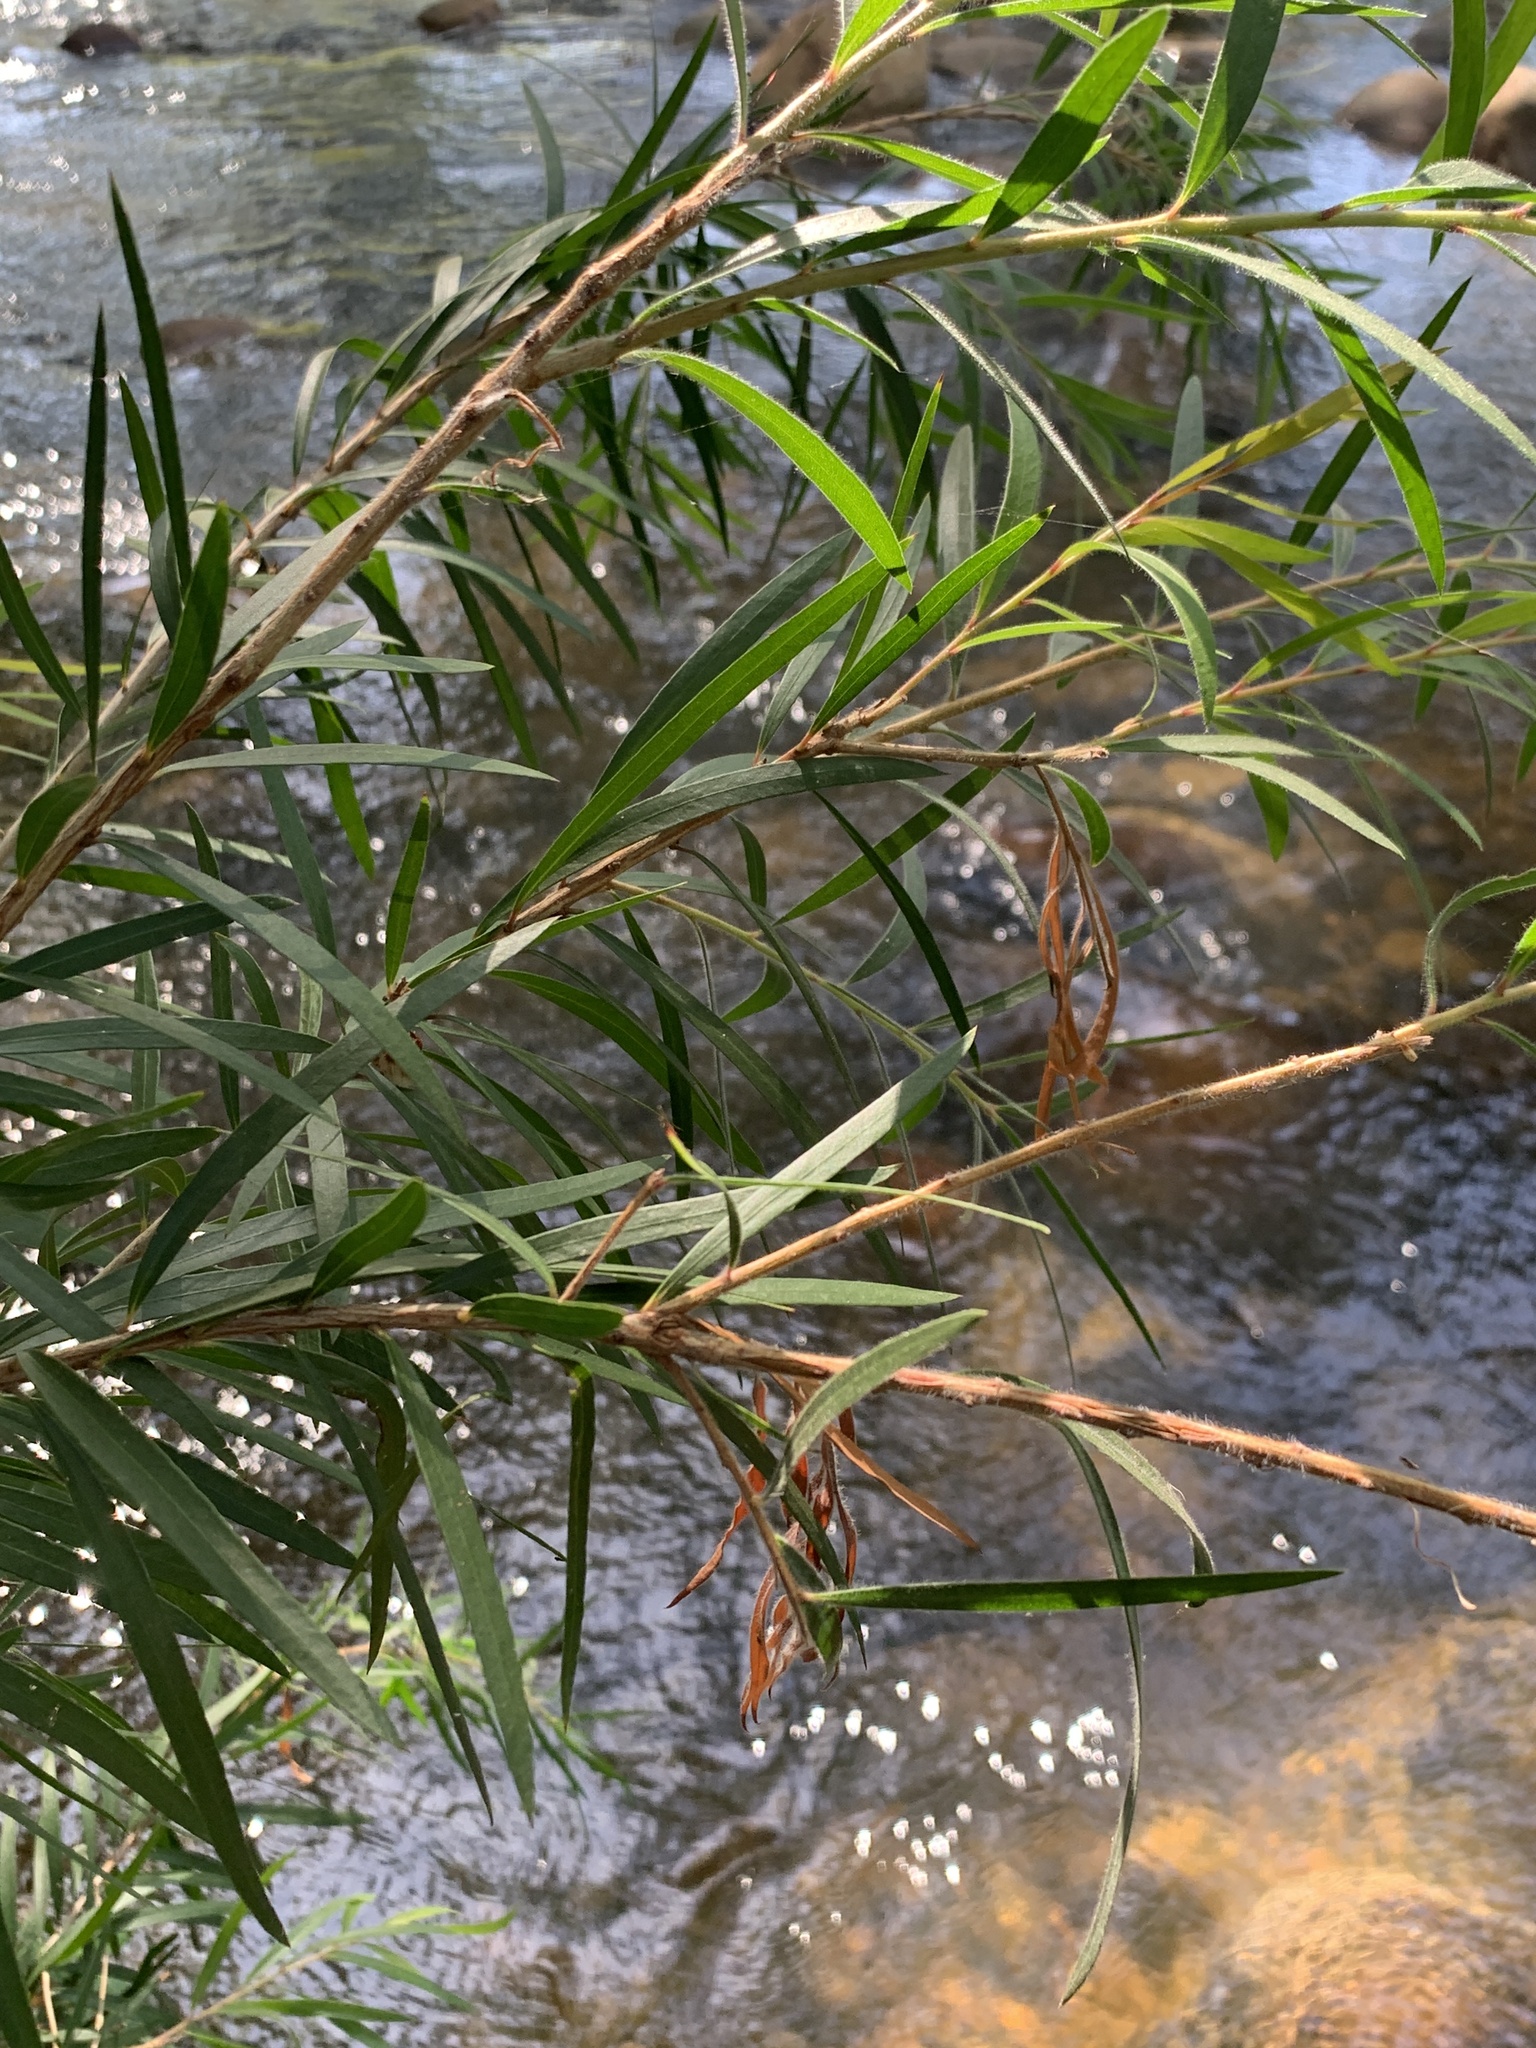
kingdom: Plantae
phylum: Tracheophyta
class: Magnoliopsida
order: Myrtales
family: Myrtaceae
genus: Callistemon
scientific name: Callistemon viminalis
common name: Drooping bottlebrush
